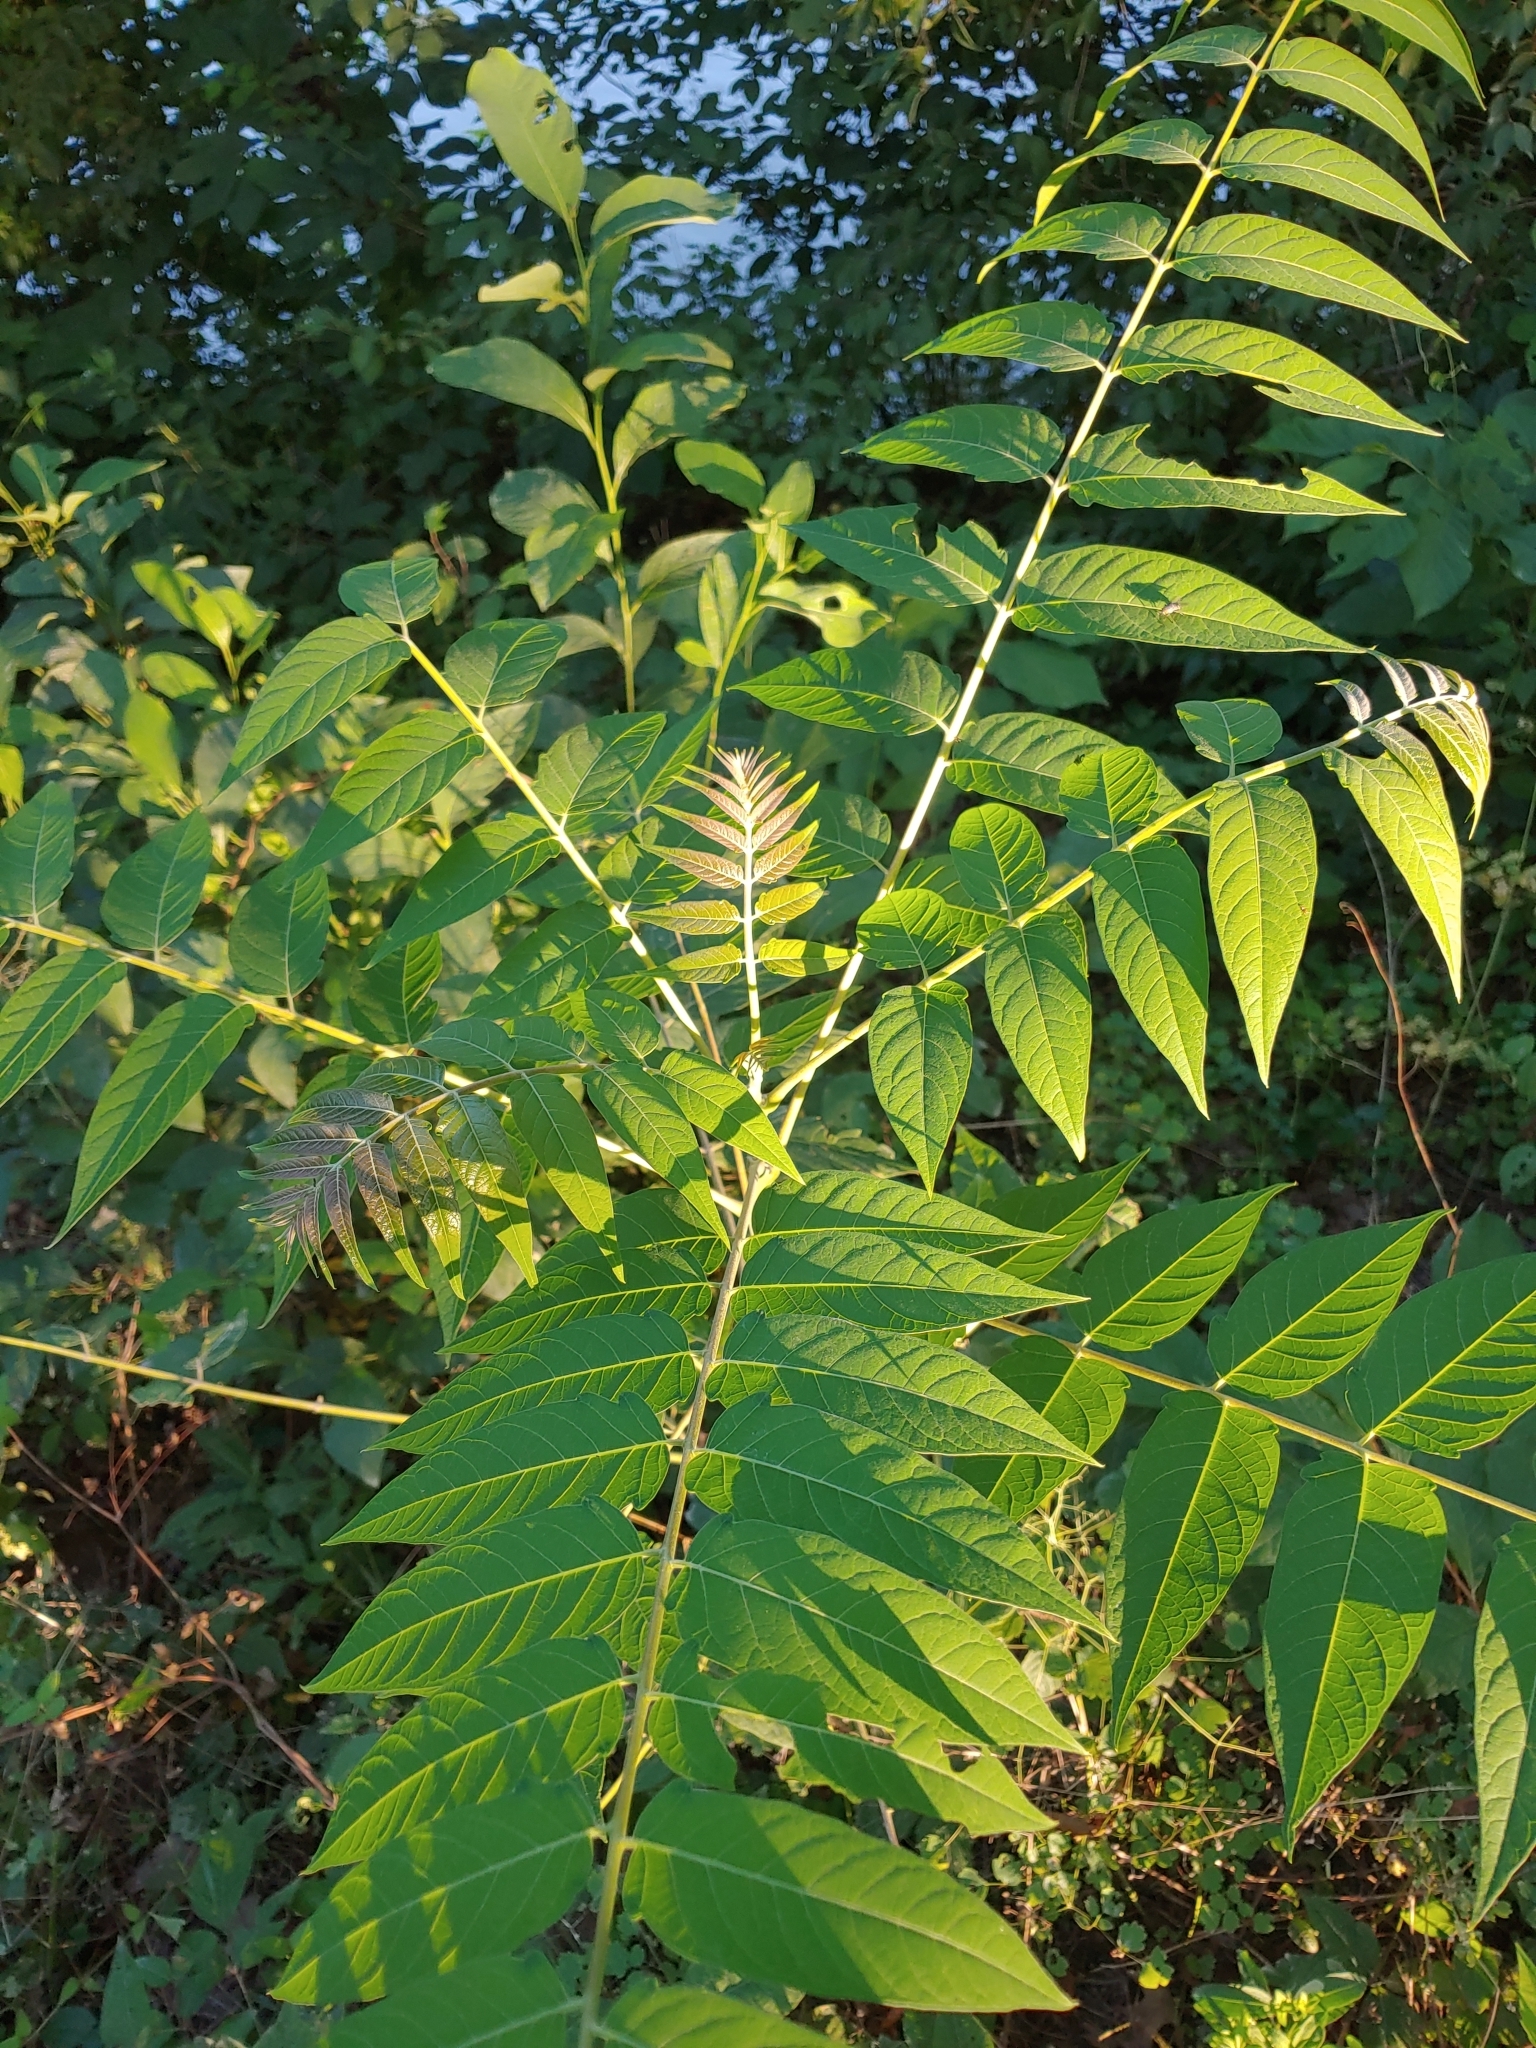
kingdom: Plantae
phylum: Tracheophyta
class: Magnoliopsida
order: Sapindales
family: Simaroubaceae
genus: Ailanthus
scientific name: Ailanthus altissima
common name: Tree-of-heaven
